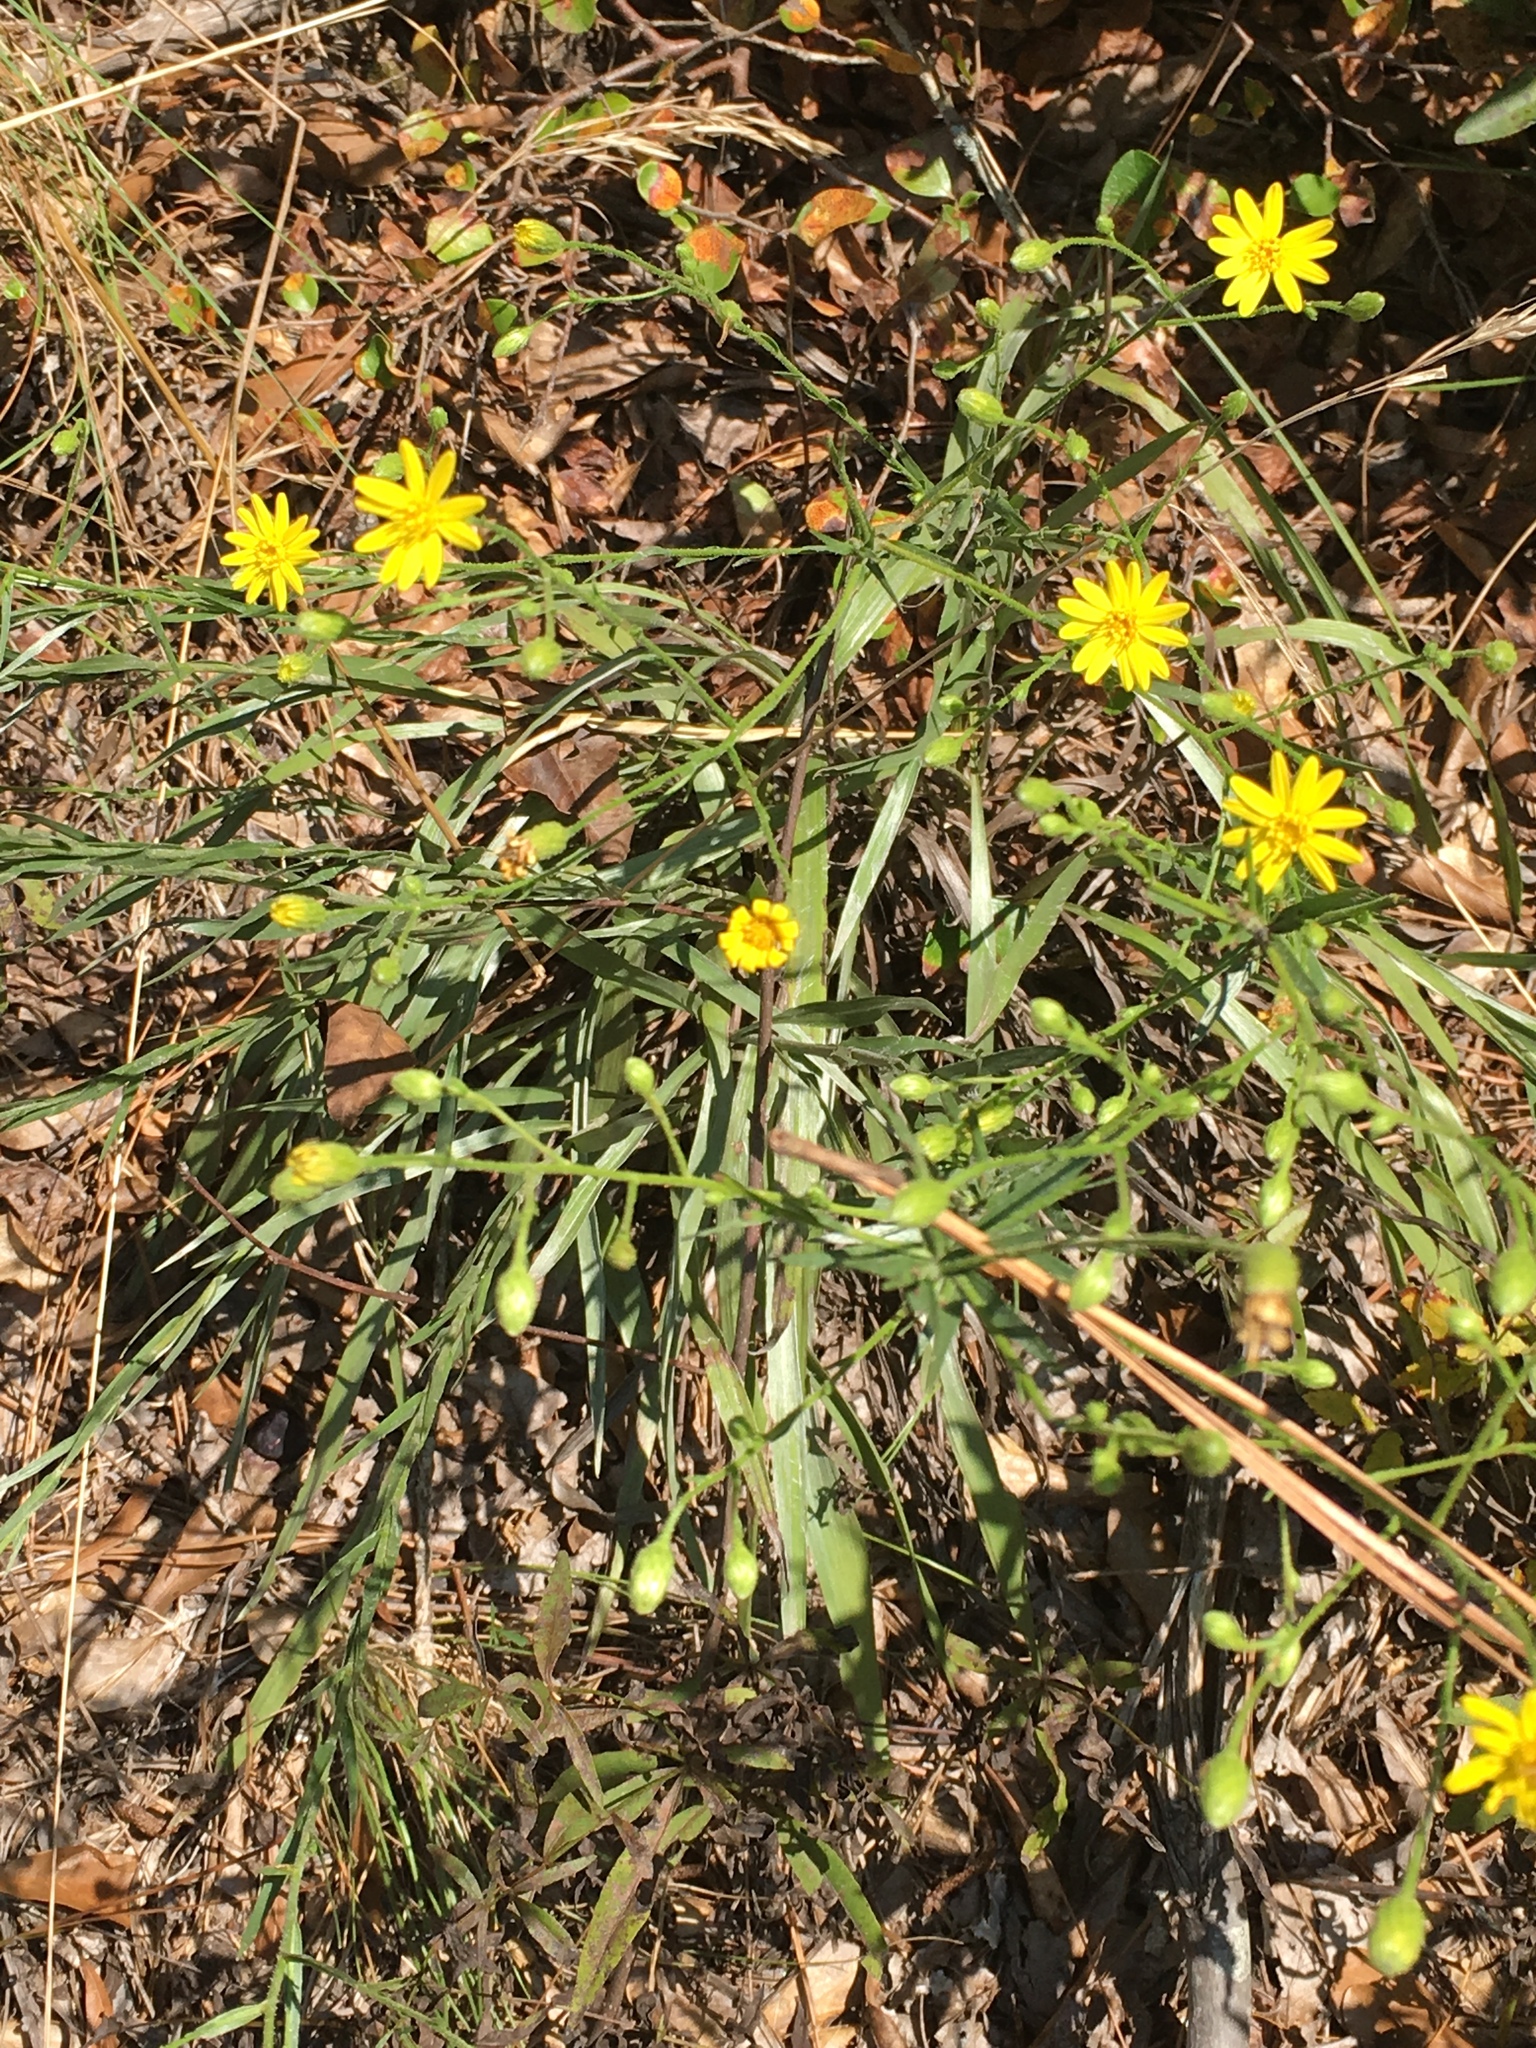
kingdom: Plantae
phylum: Tracheophyta
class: Magnoliopsida
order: Asterales
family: Asteraceae
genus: Pityopsis
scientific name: Pityopsis aspera
